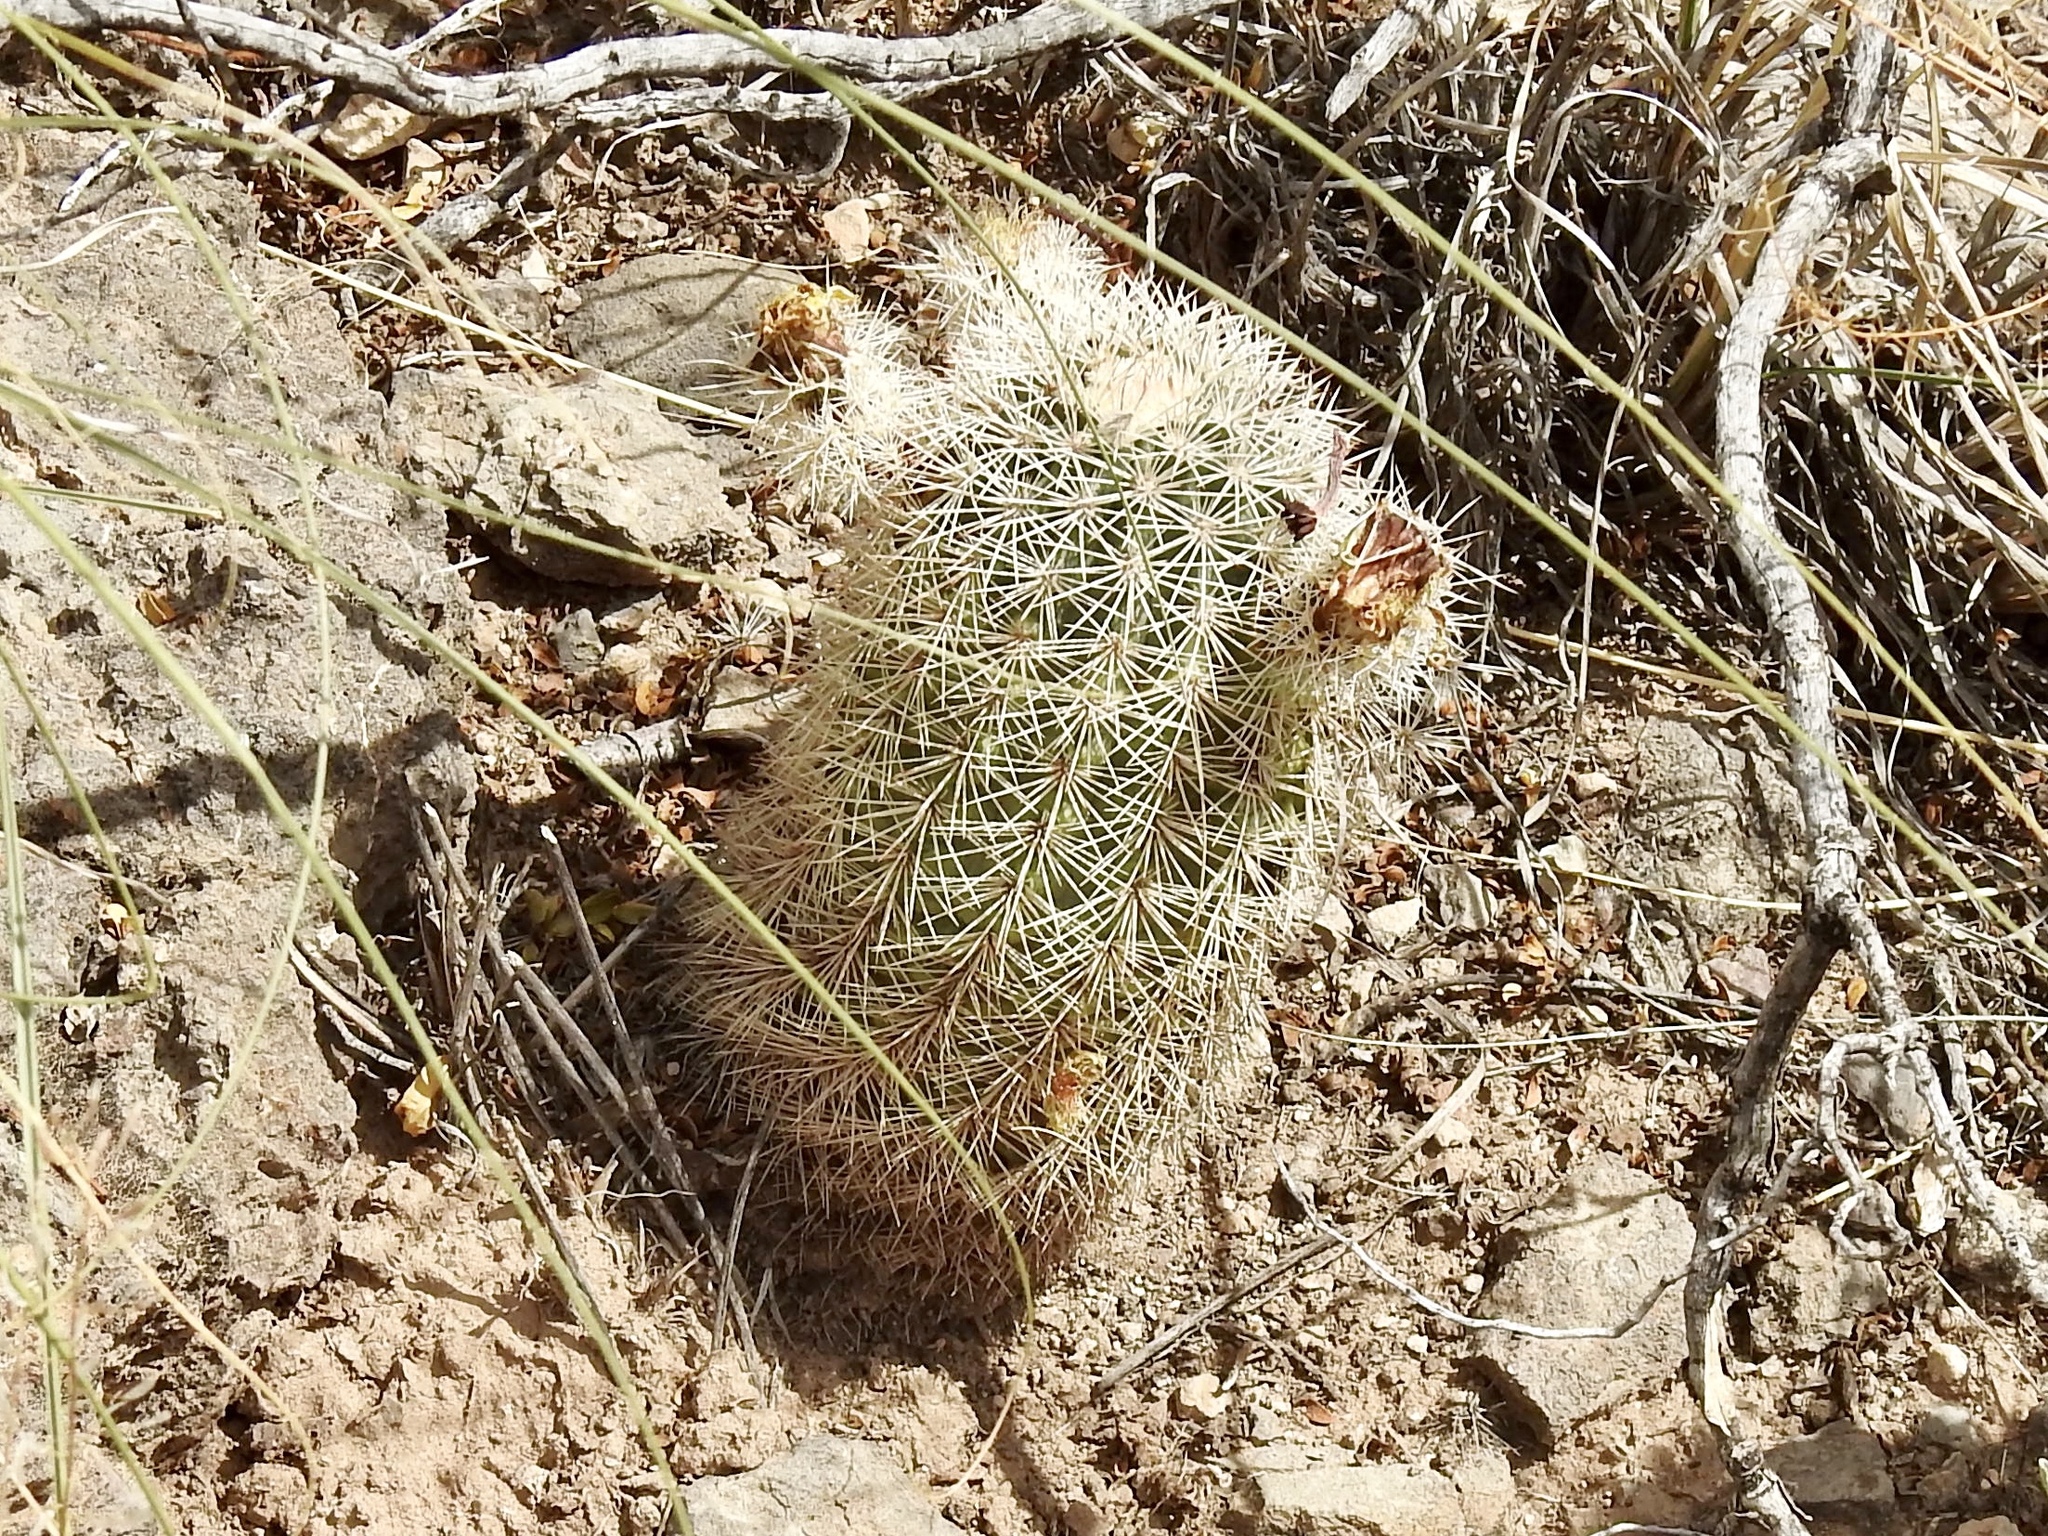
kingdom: Plantae
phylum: Tracheophyta
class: Magnoliopsida
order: Caryophyllales
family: Cactaceae
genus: Echinocereus
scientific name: Echinocereus dasyacanthus
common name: Spiny hedgehog cactus
